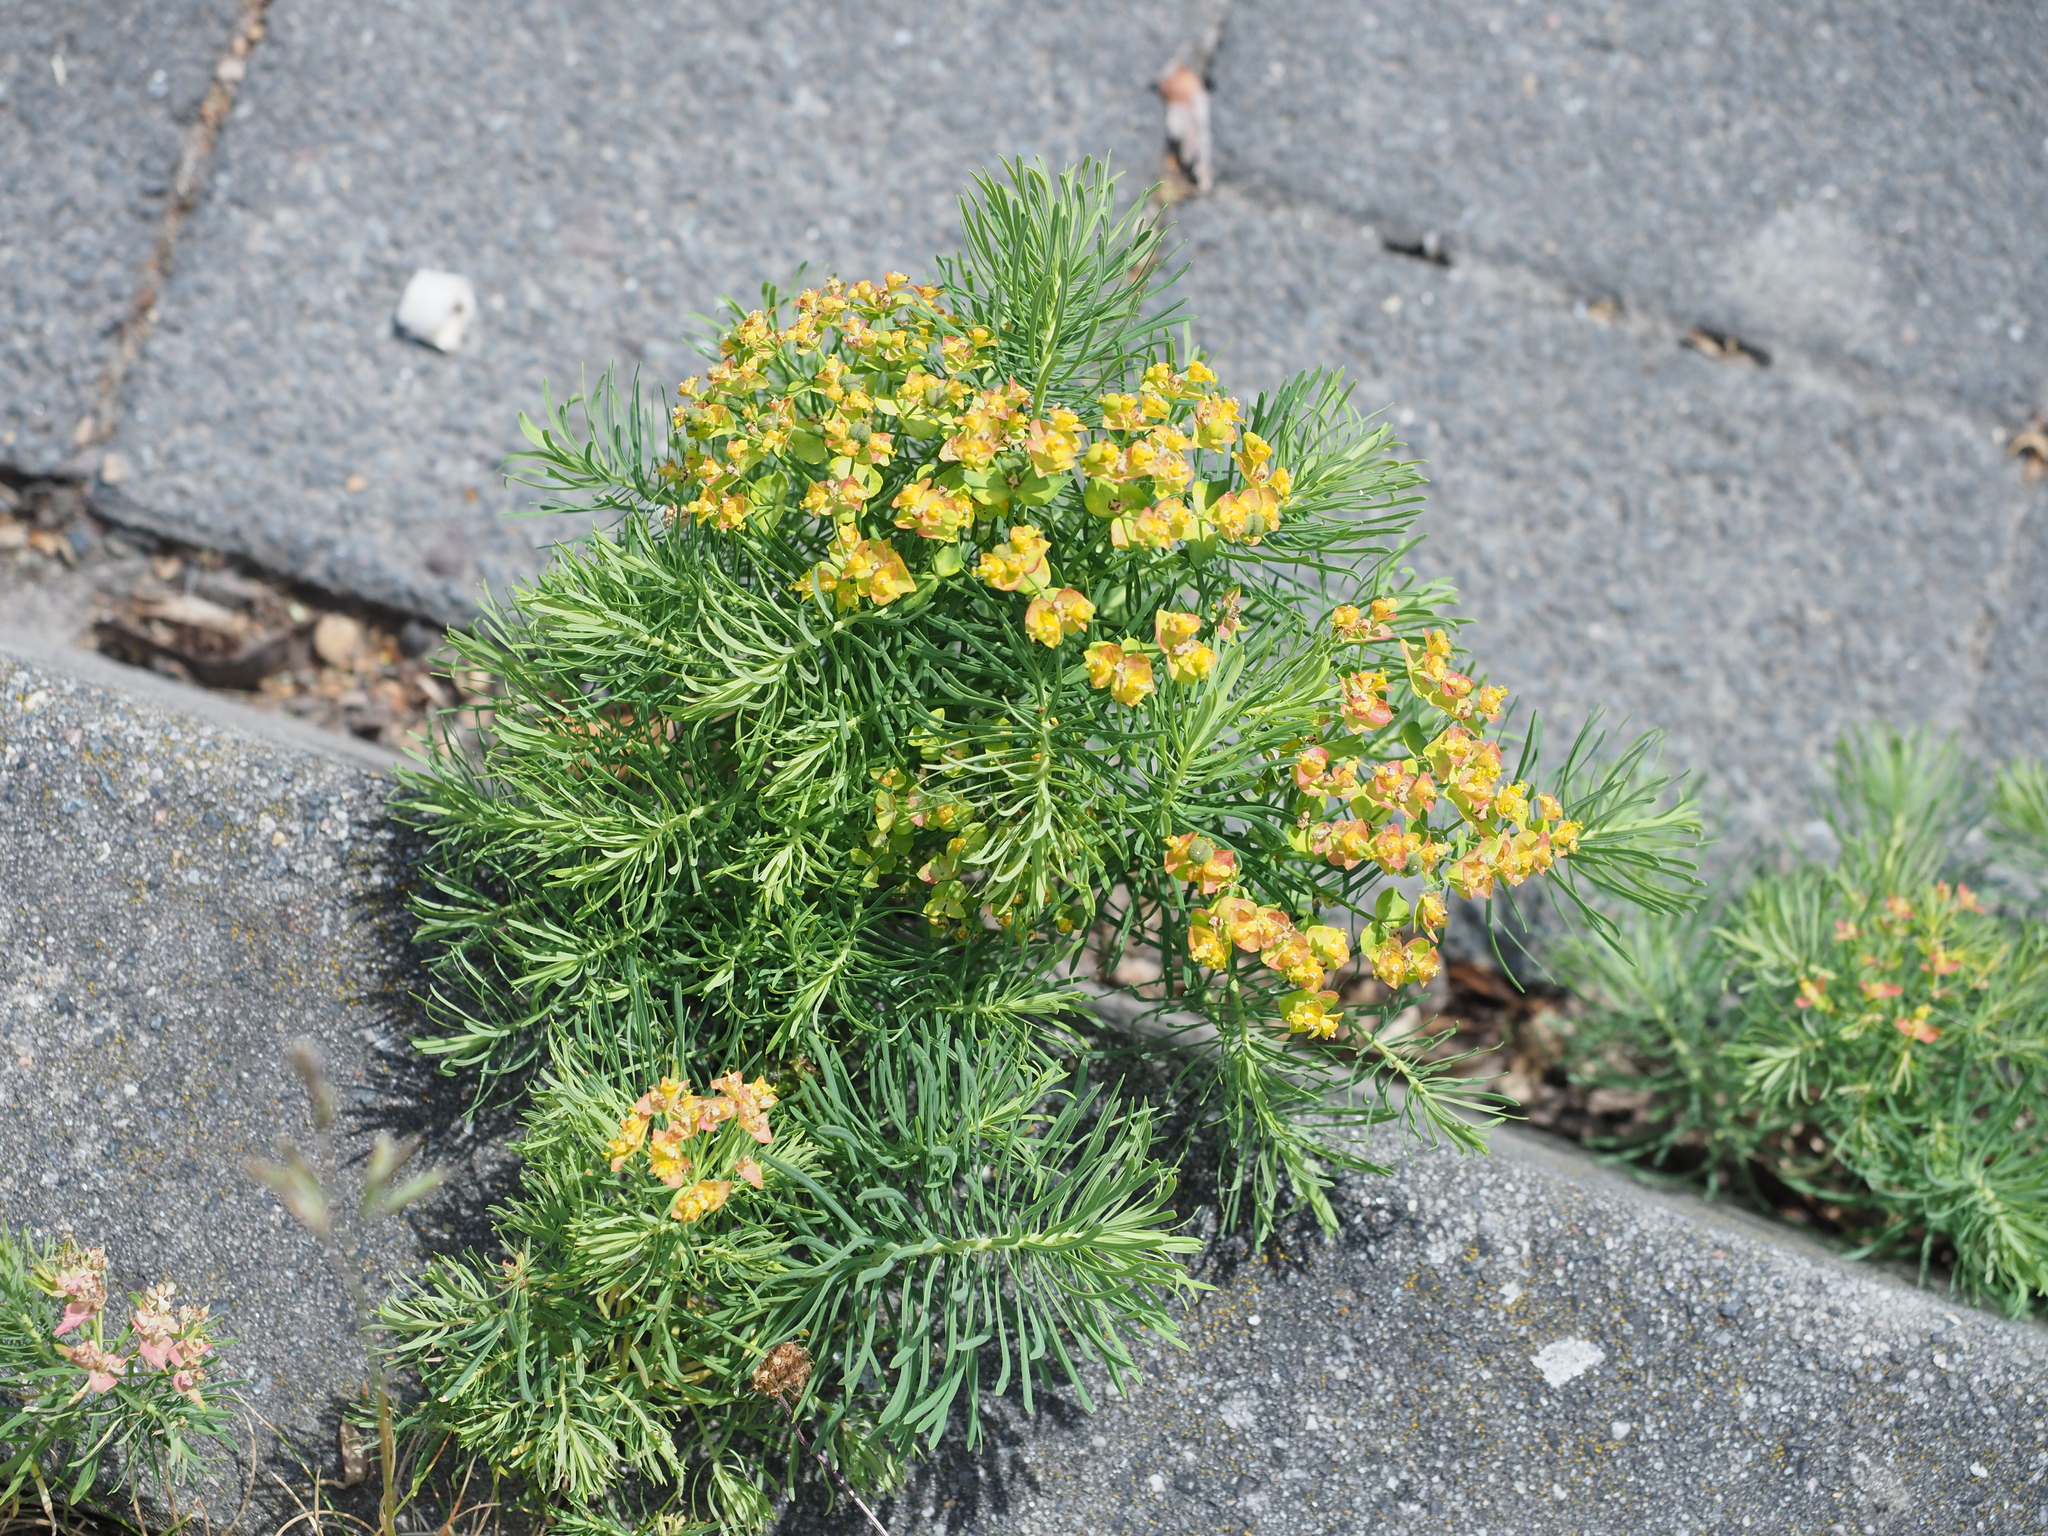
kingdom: Plantae
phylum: Tracheophyta
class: Magnoliopsida
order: Malpighiales
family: Euphorbiaceae
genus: Euphorbia
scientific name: Euphorbia cyparissias
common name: Cypress spurge
